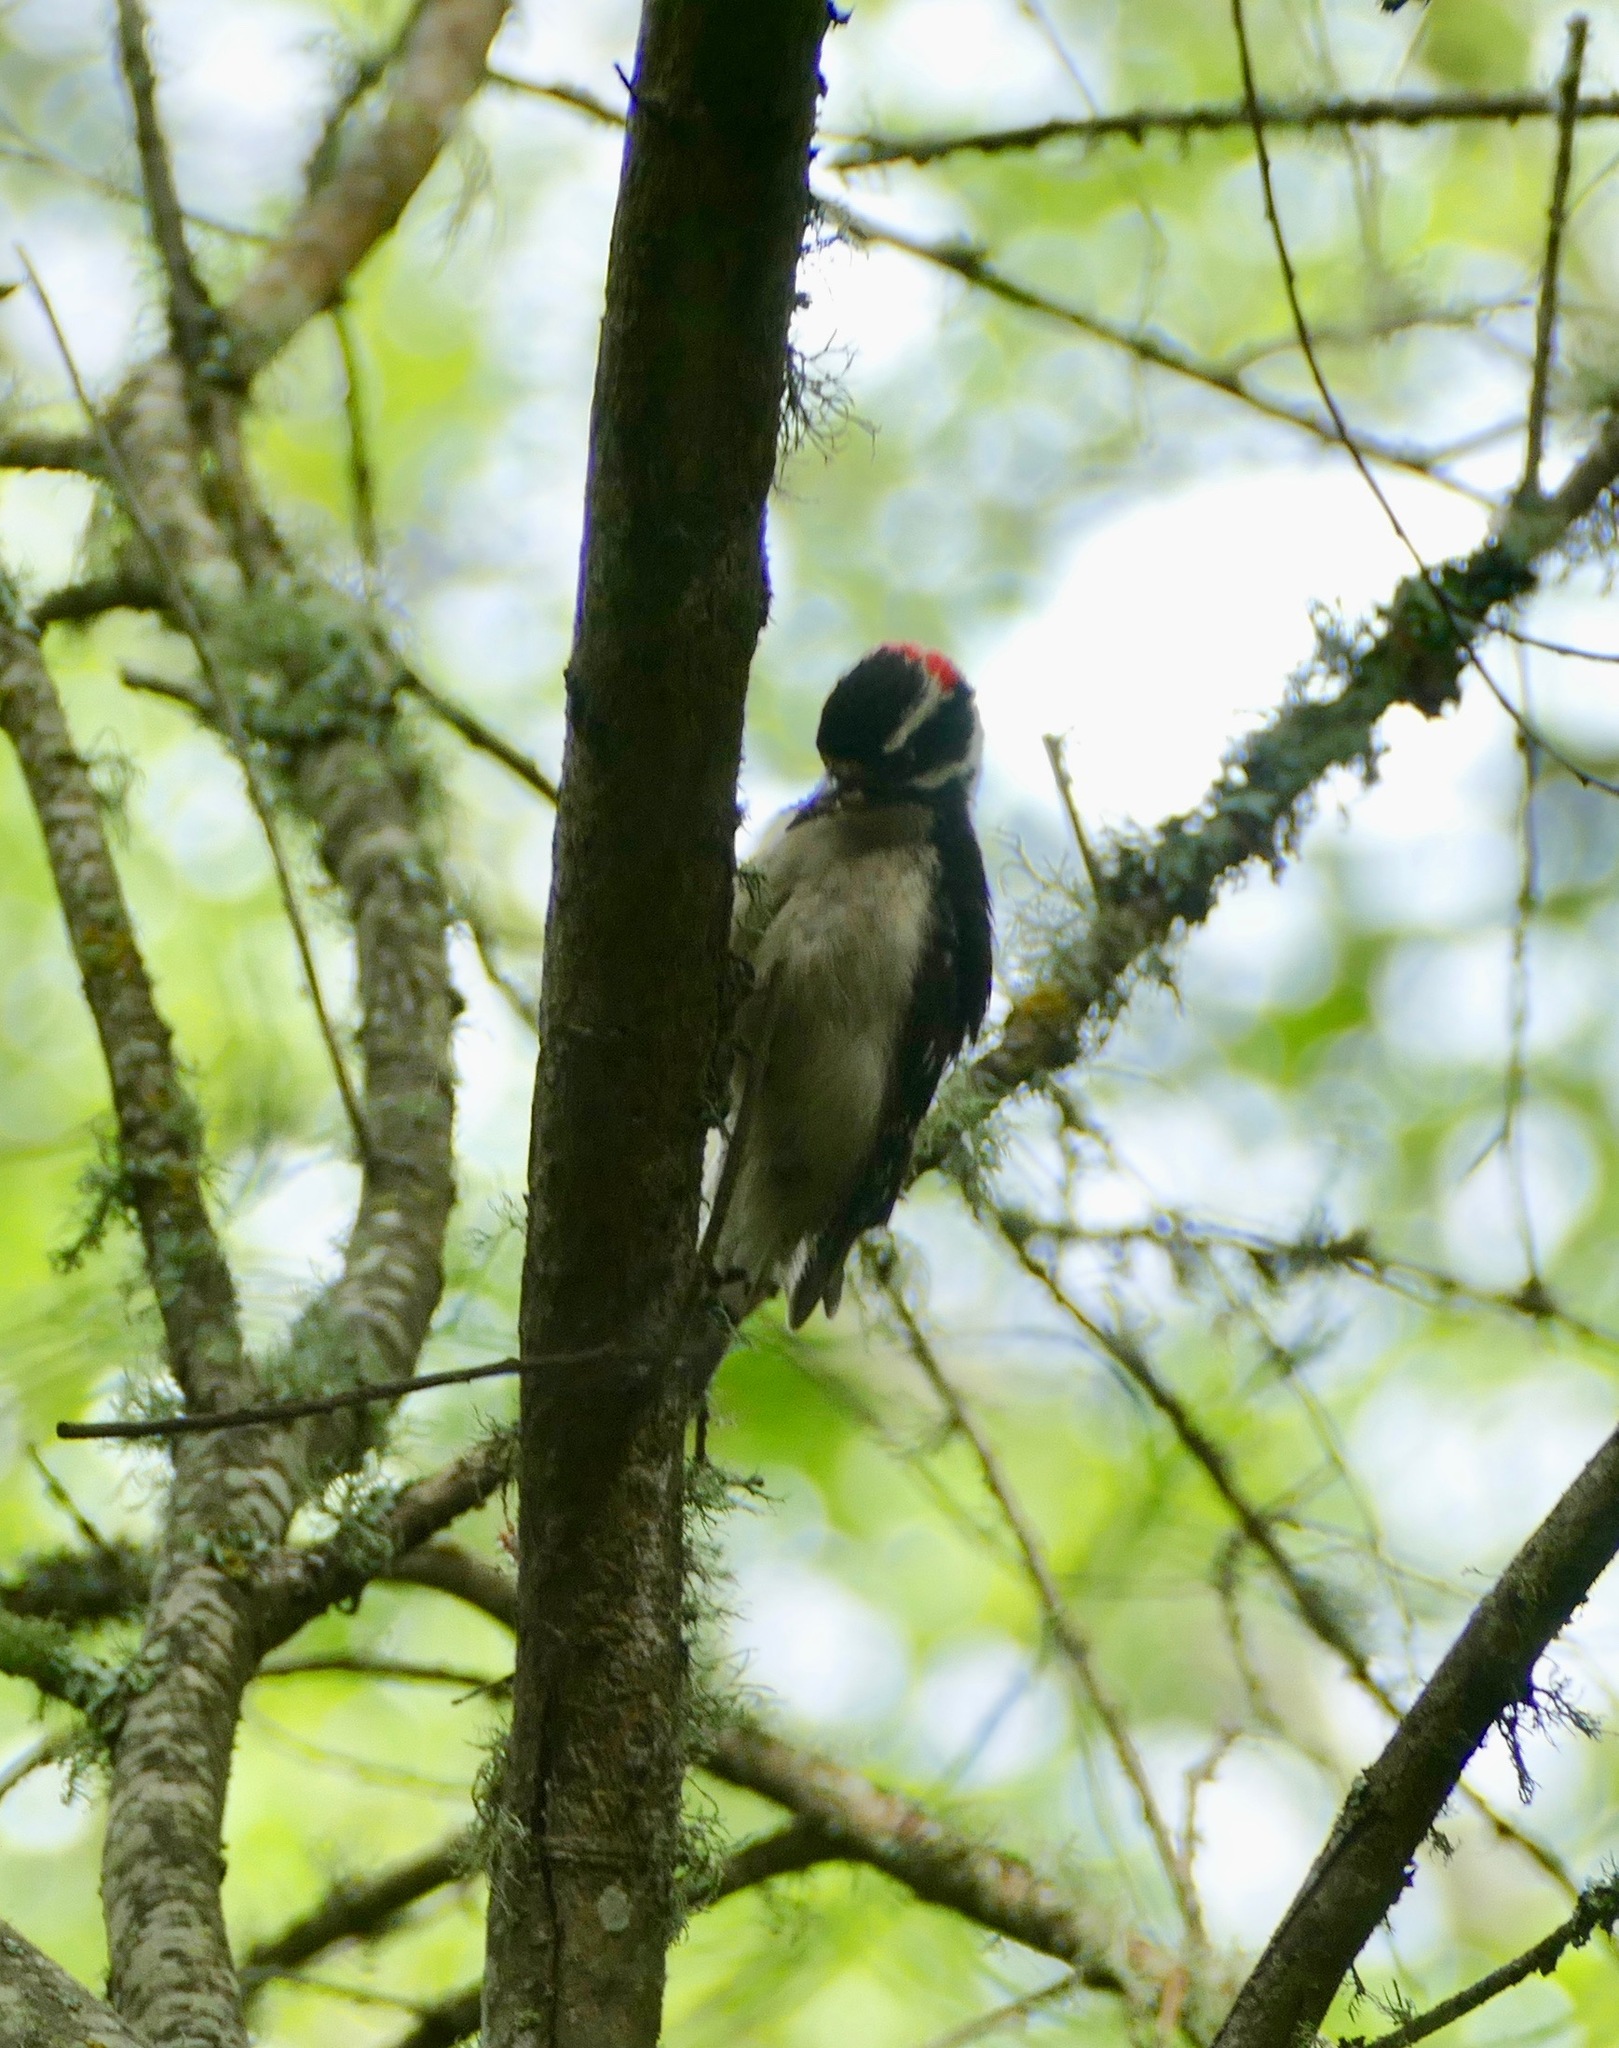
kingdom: Animalia
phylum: Chordata
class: Aves
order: Piciformes
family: Picidae
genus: Dryobates
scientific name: Dryobates pubescens
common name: Downy woodpecker
